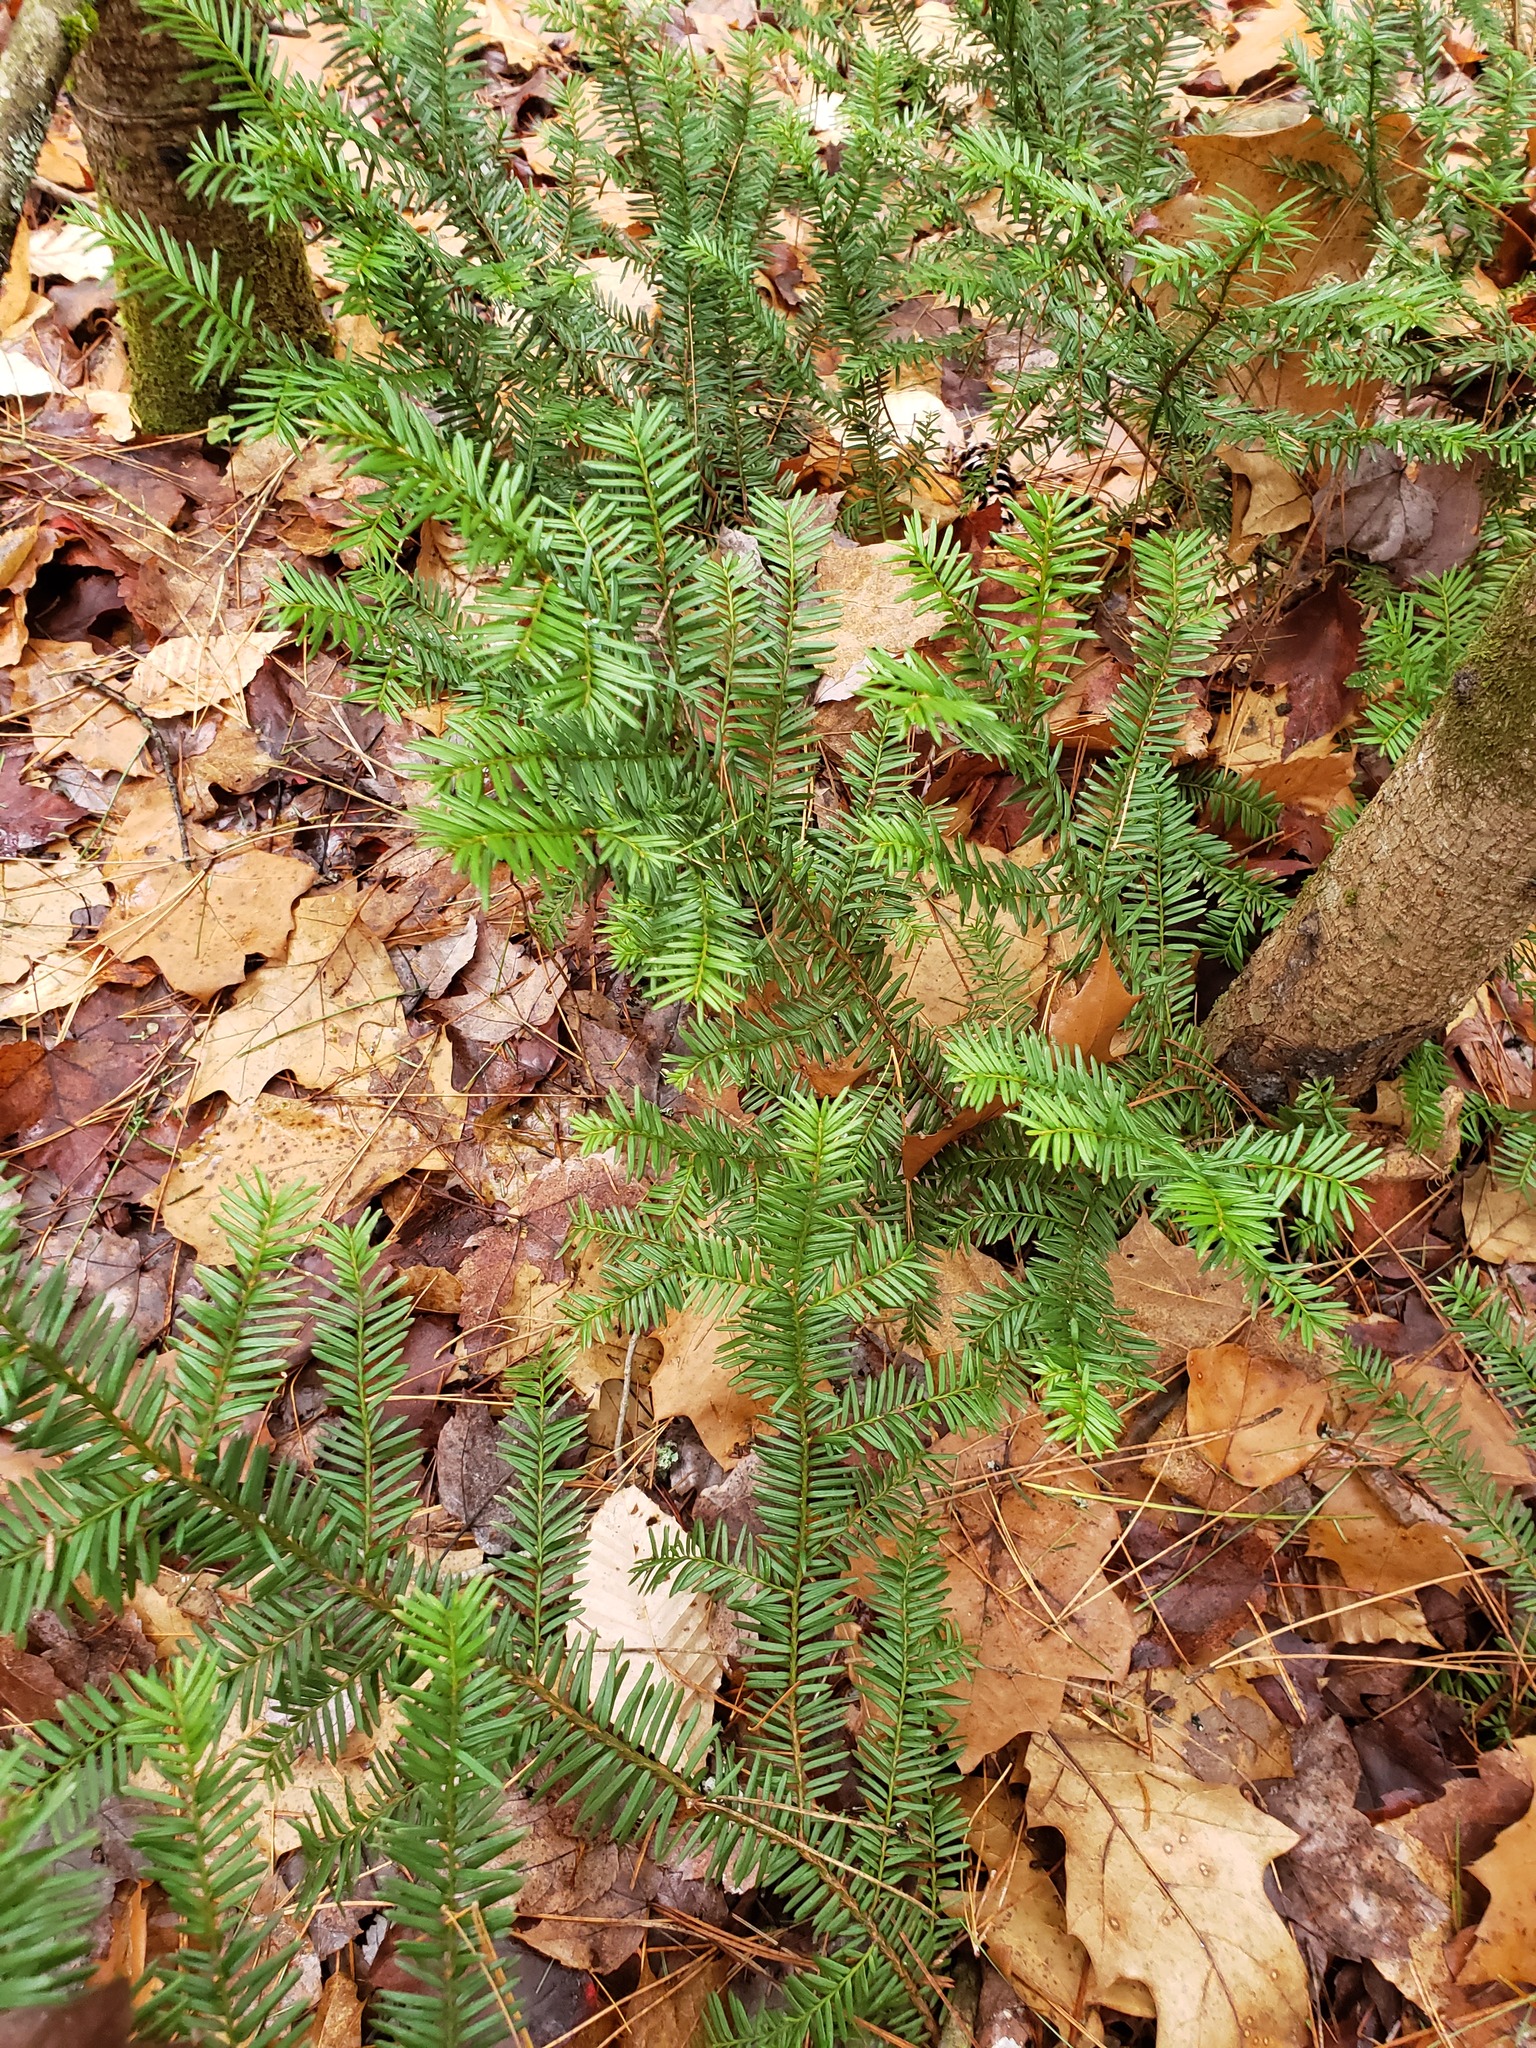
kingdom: Plantae
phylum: Tracheophyta
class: Pinopsida
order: Pinales
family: Taxaceae
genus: Taxus
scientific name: Taxus canadensis
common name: American yew
